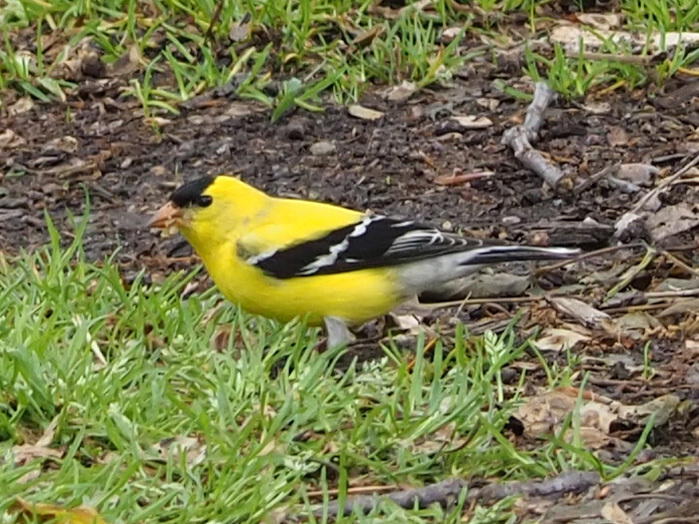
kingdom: Animalia
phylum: Chordata
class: Aves
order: Passeriformes
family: Fringillidae
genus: Spinus
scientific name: Spinus tristis
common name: American goldfinch
